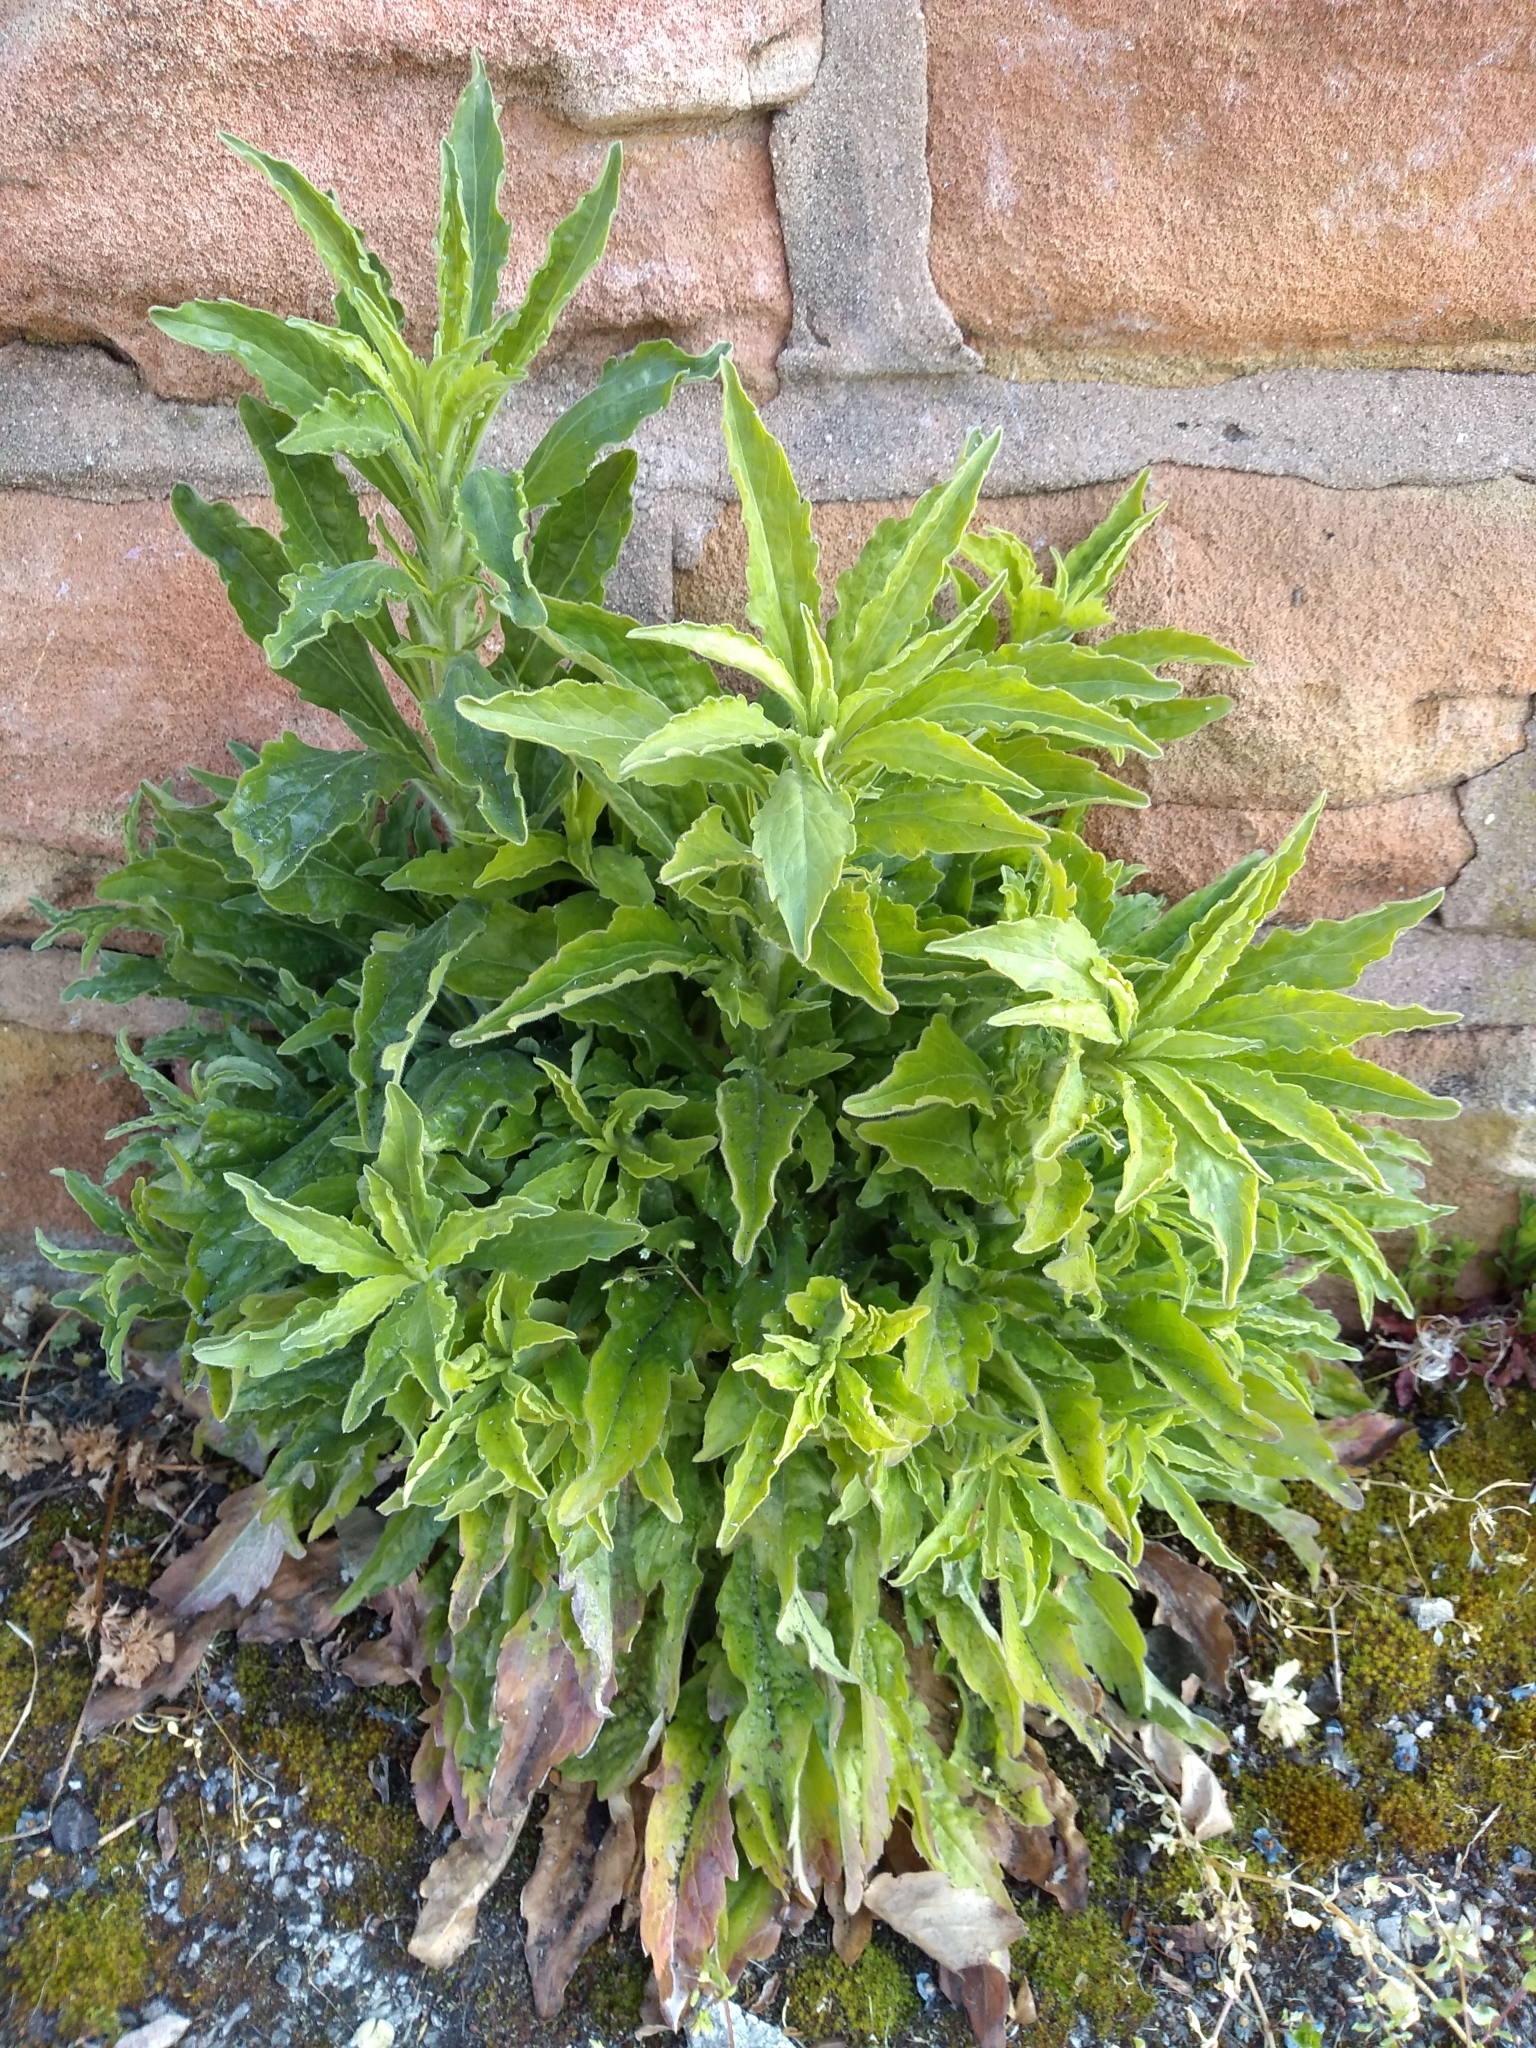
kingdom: Plantae
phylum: Tracheophyta
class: Magnoliopsida
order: Asterales
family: Asteraceae
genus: Erigeron
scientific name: Erigeron canadensis
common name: Canadian fleabane
